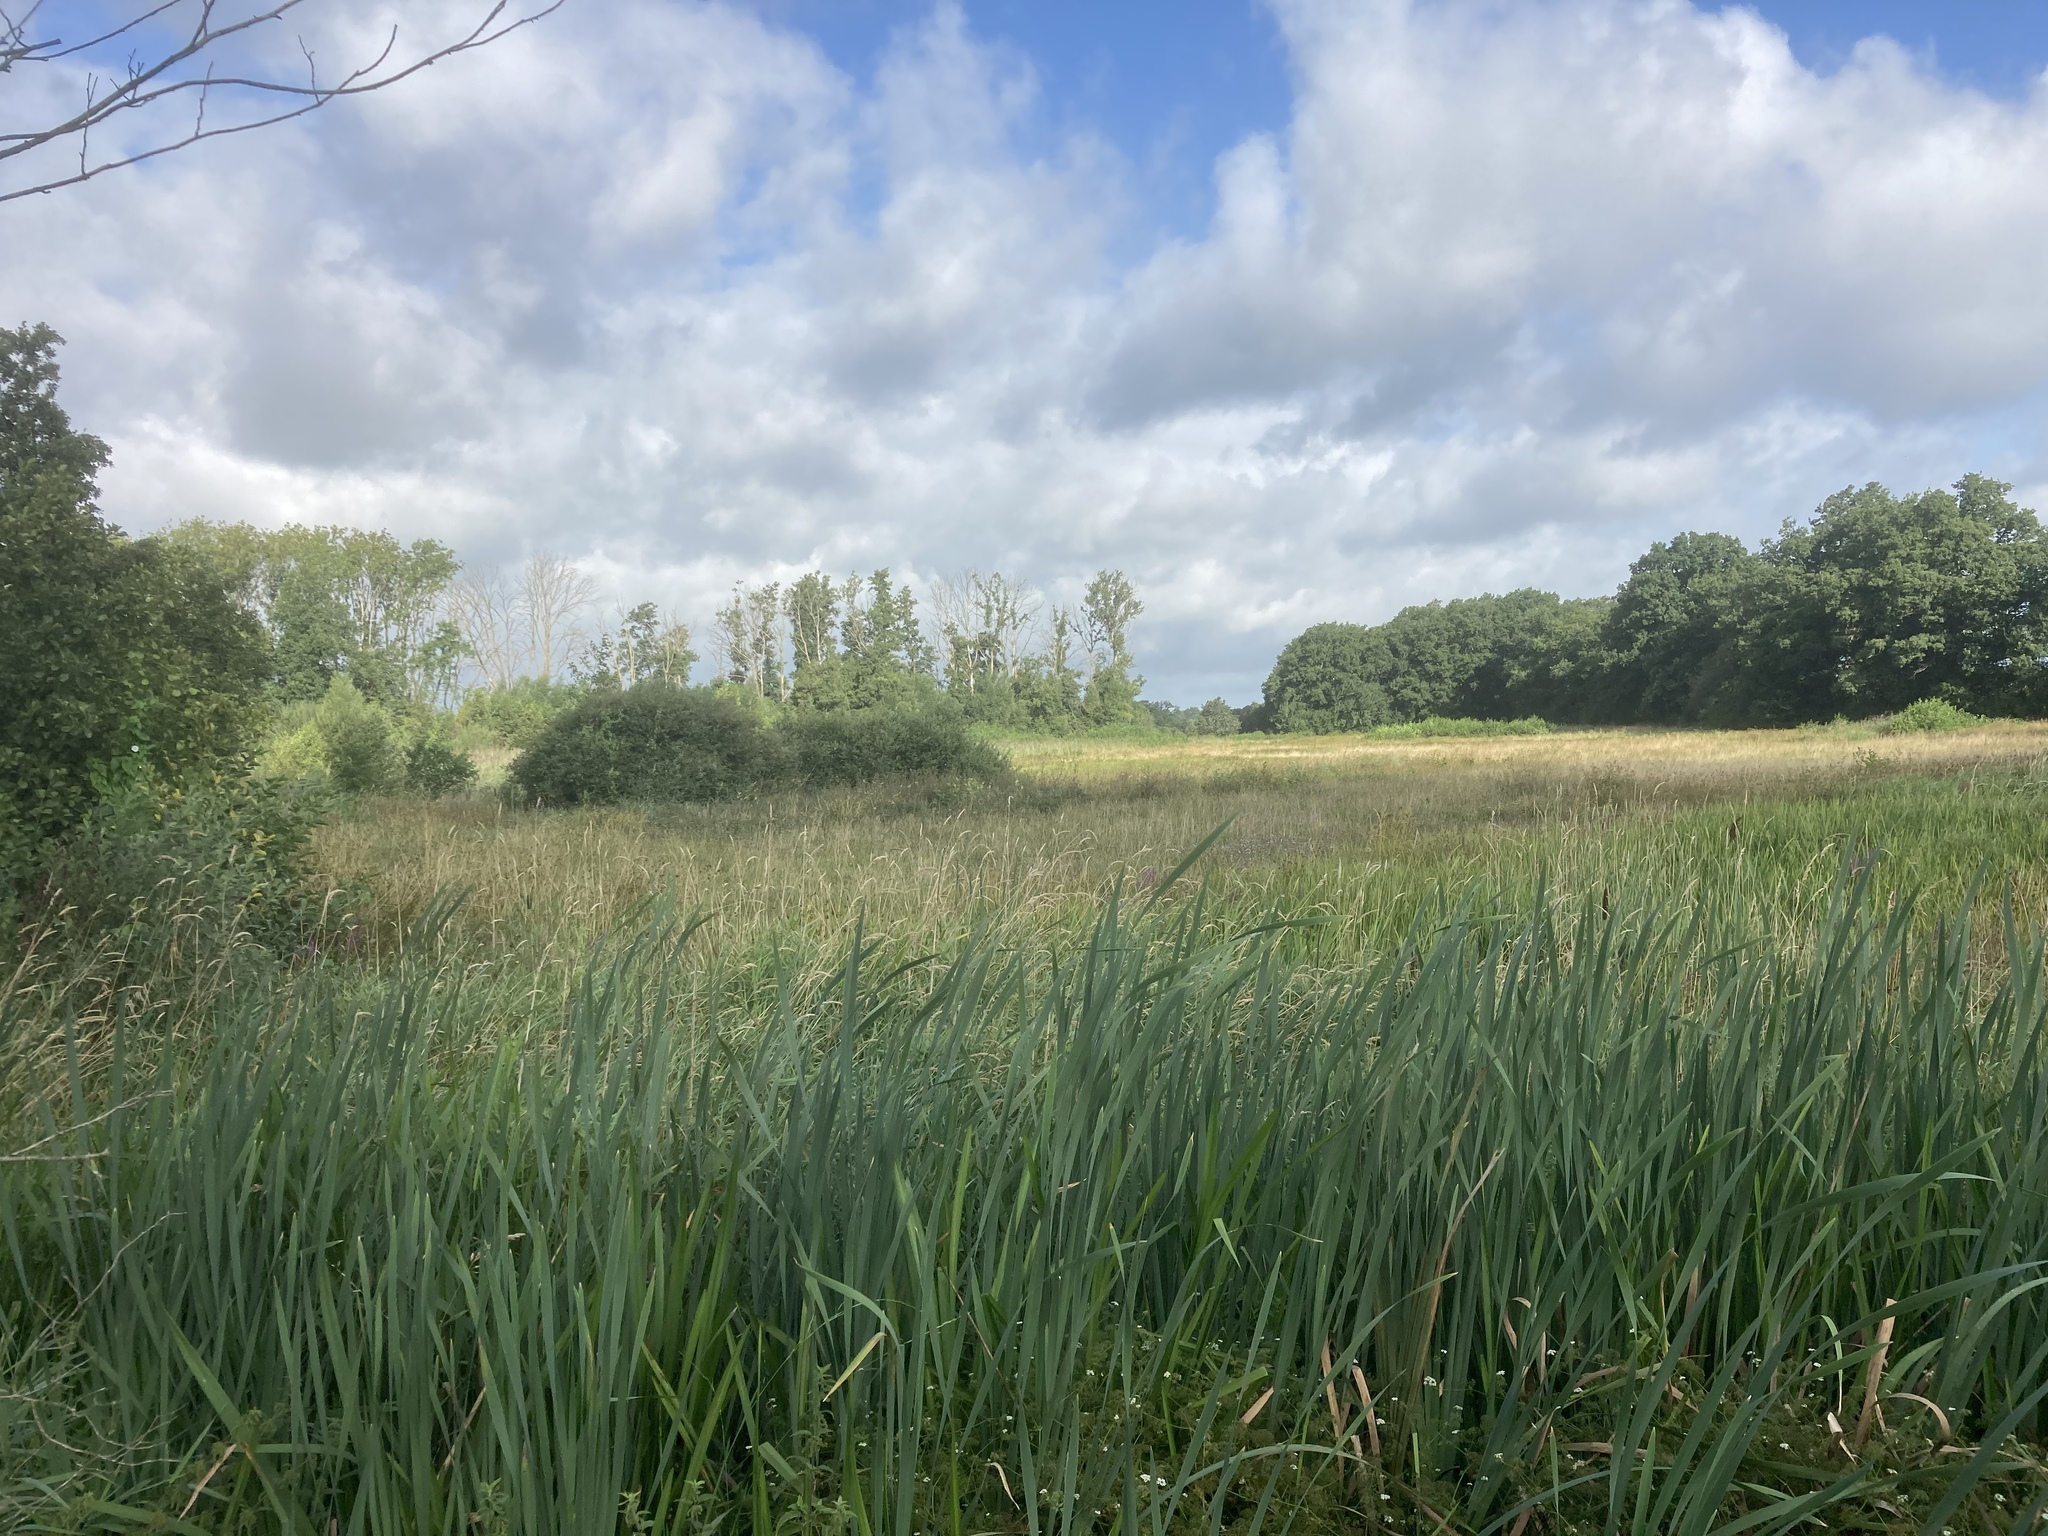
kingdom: Plantae
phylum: Tracheophyta
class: Liliopsida
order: Poales
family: Typhaceae
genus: Typha
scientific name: Typha latifolia
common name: Broadleaf cattail
